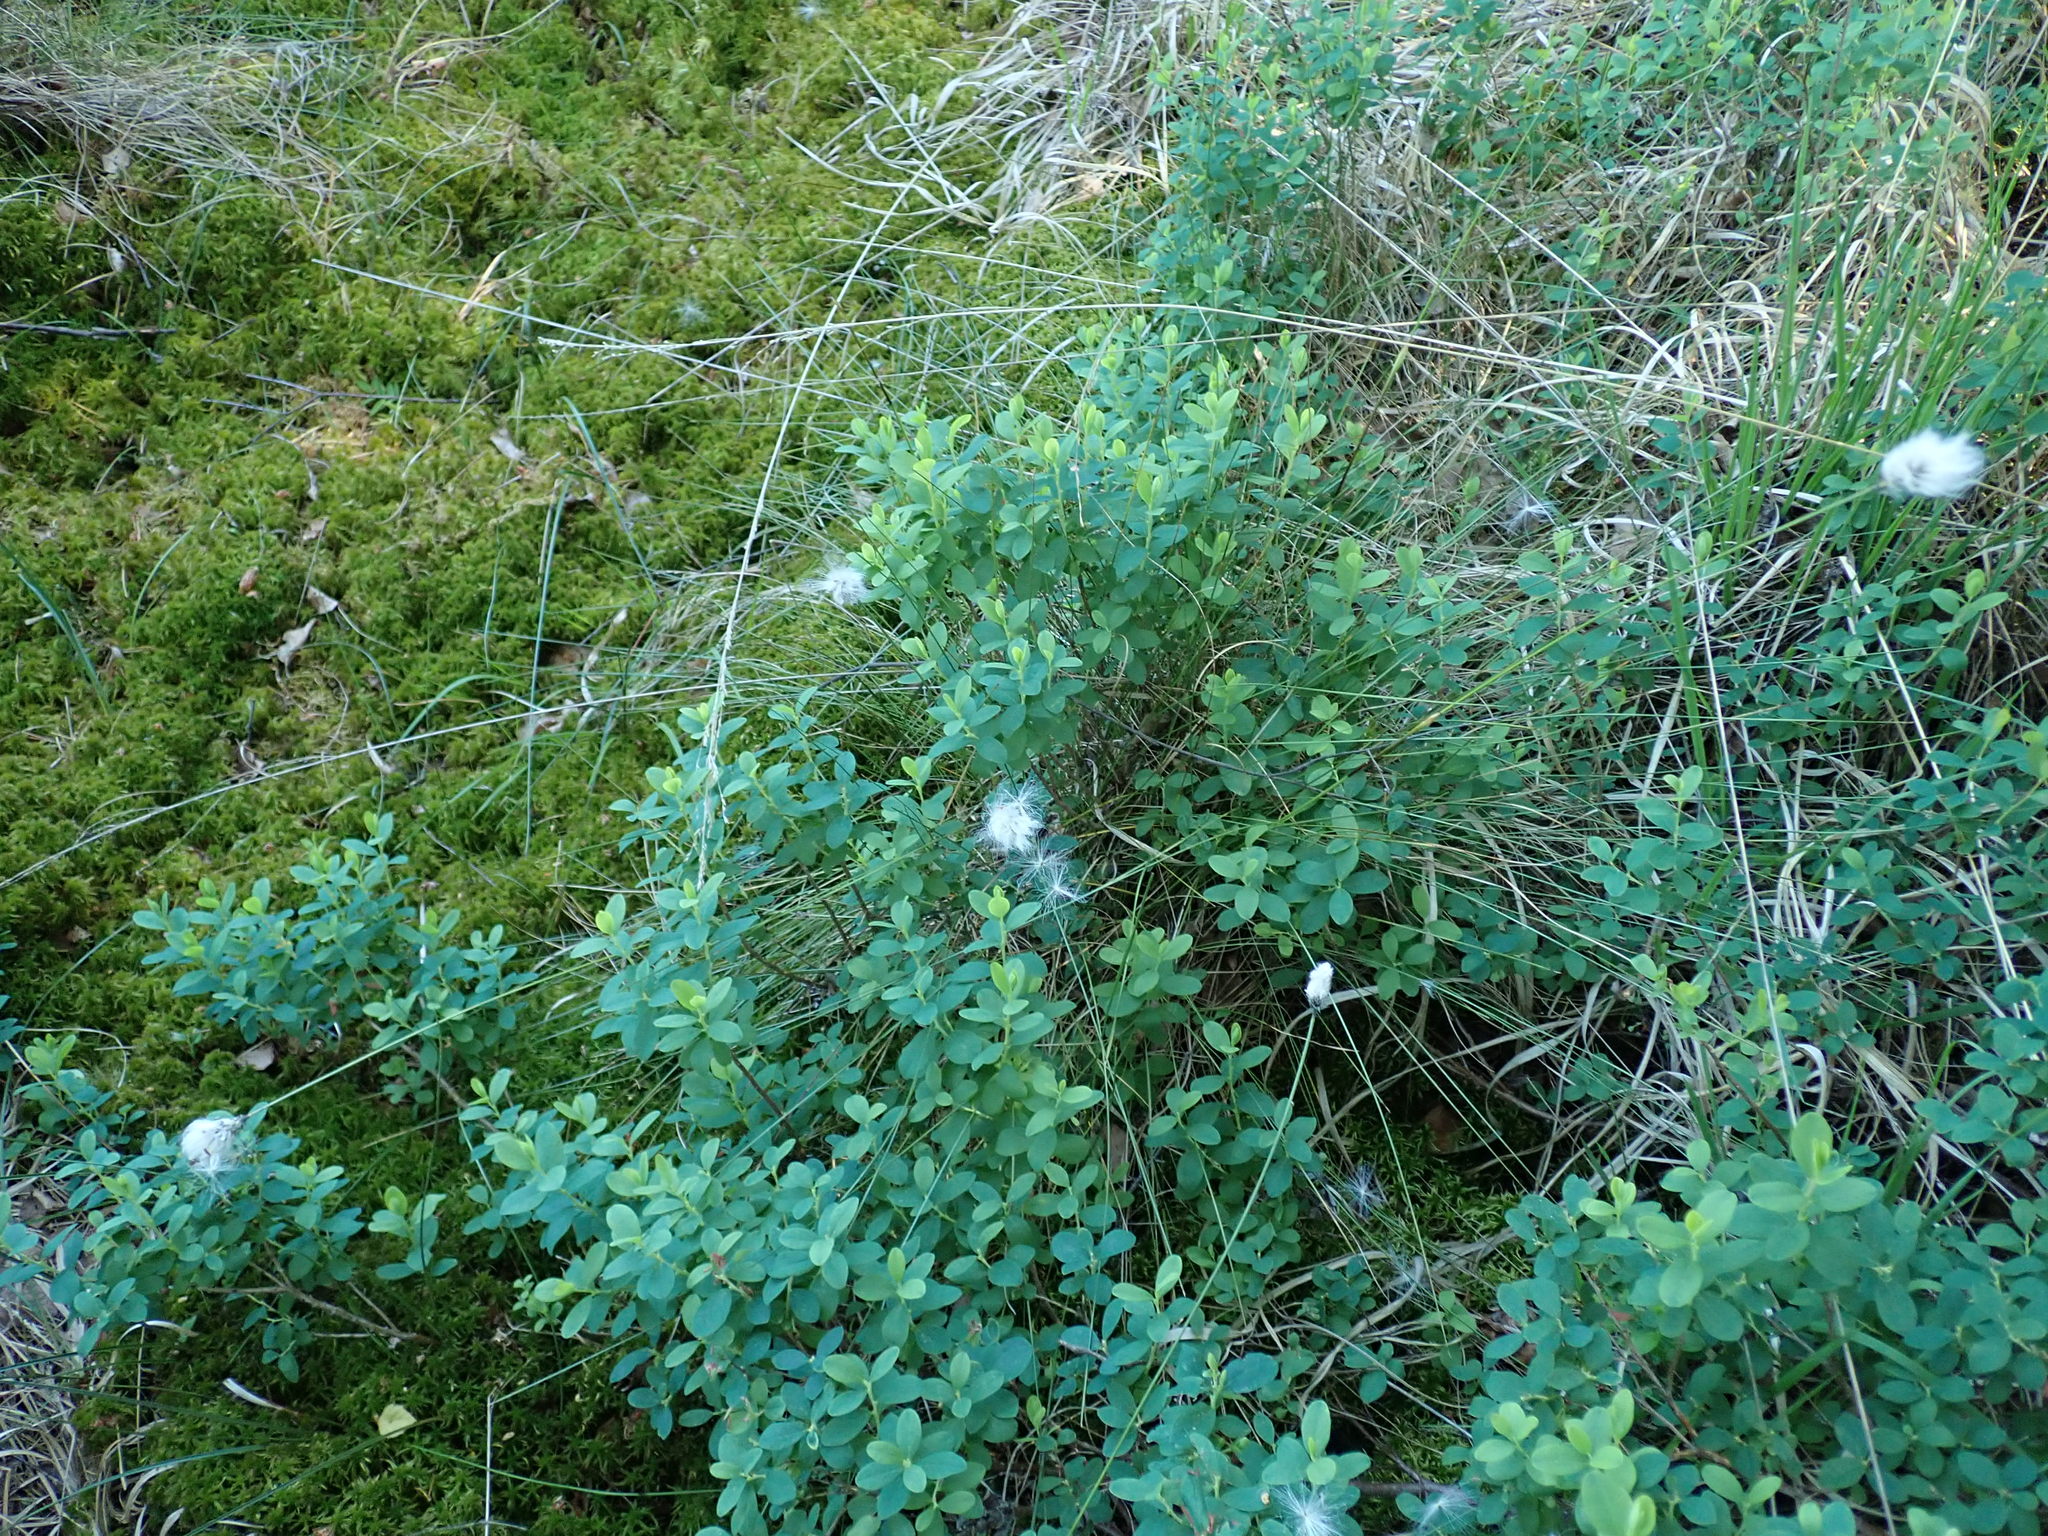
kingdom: Plantae
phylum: Tracheophyta
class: Liliopsida
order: Poales
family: Cyperaceae
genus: Eriophorum
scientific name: Eriophorum vaginatum
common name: Hare's-tail cottongrass
